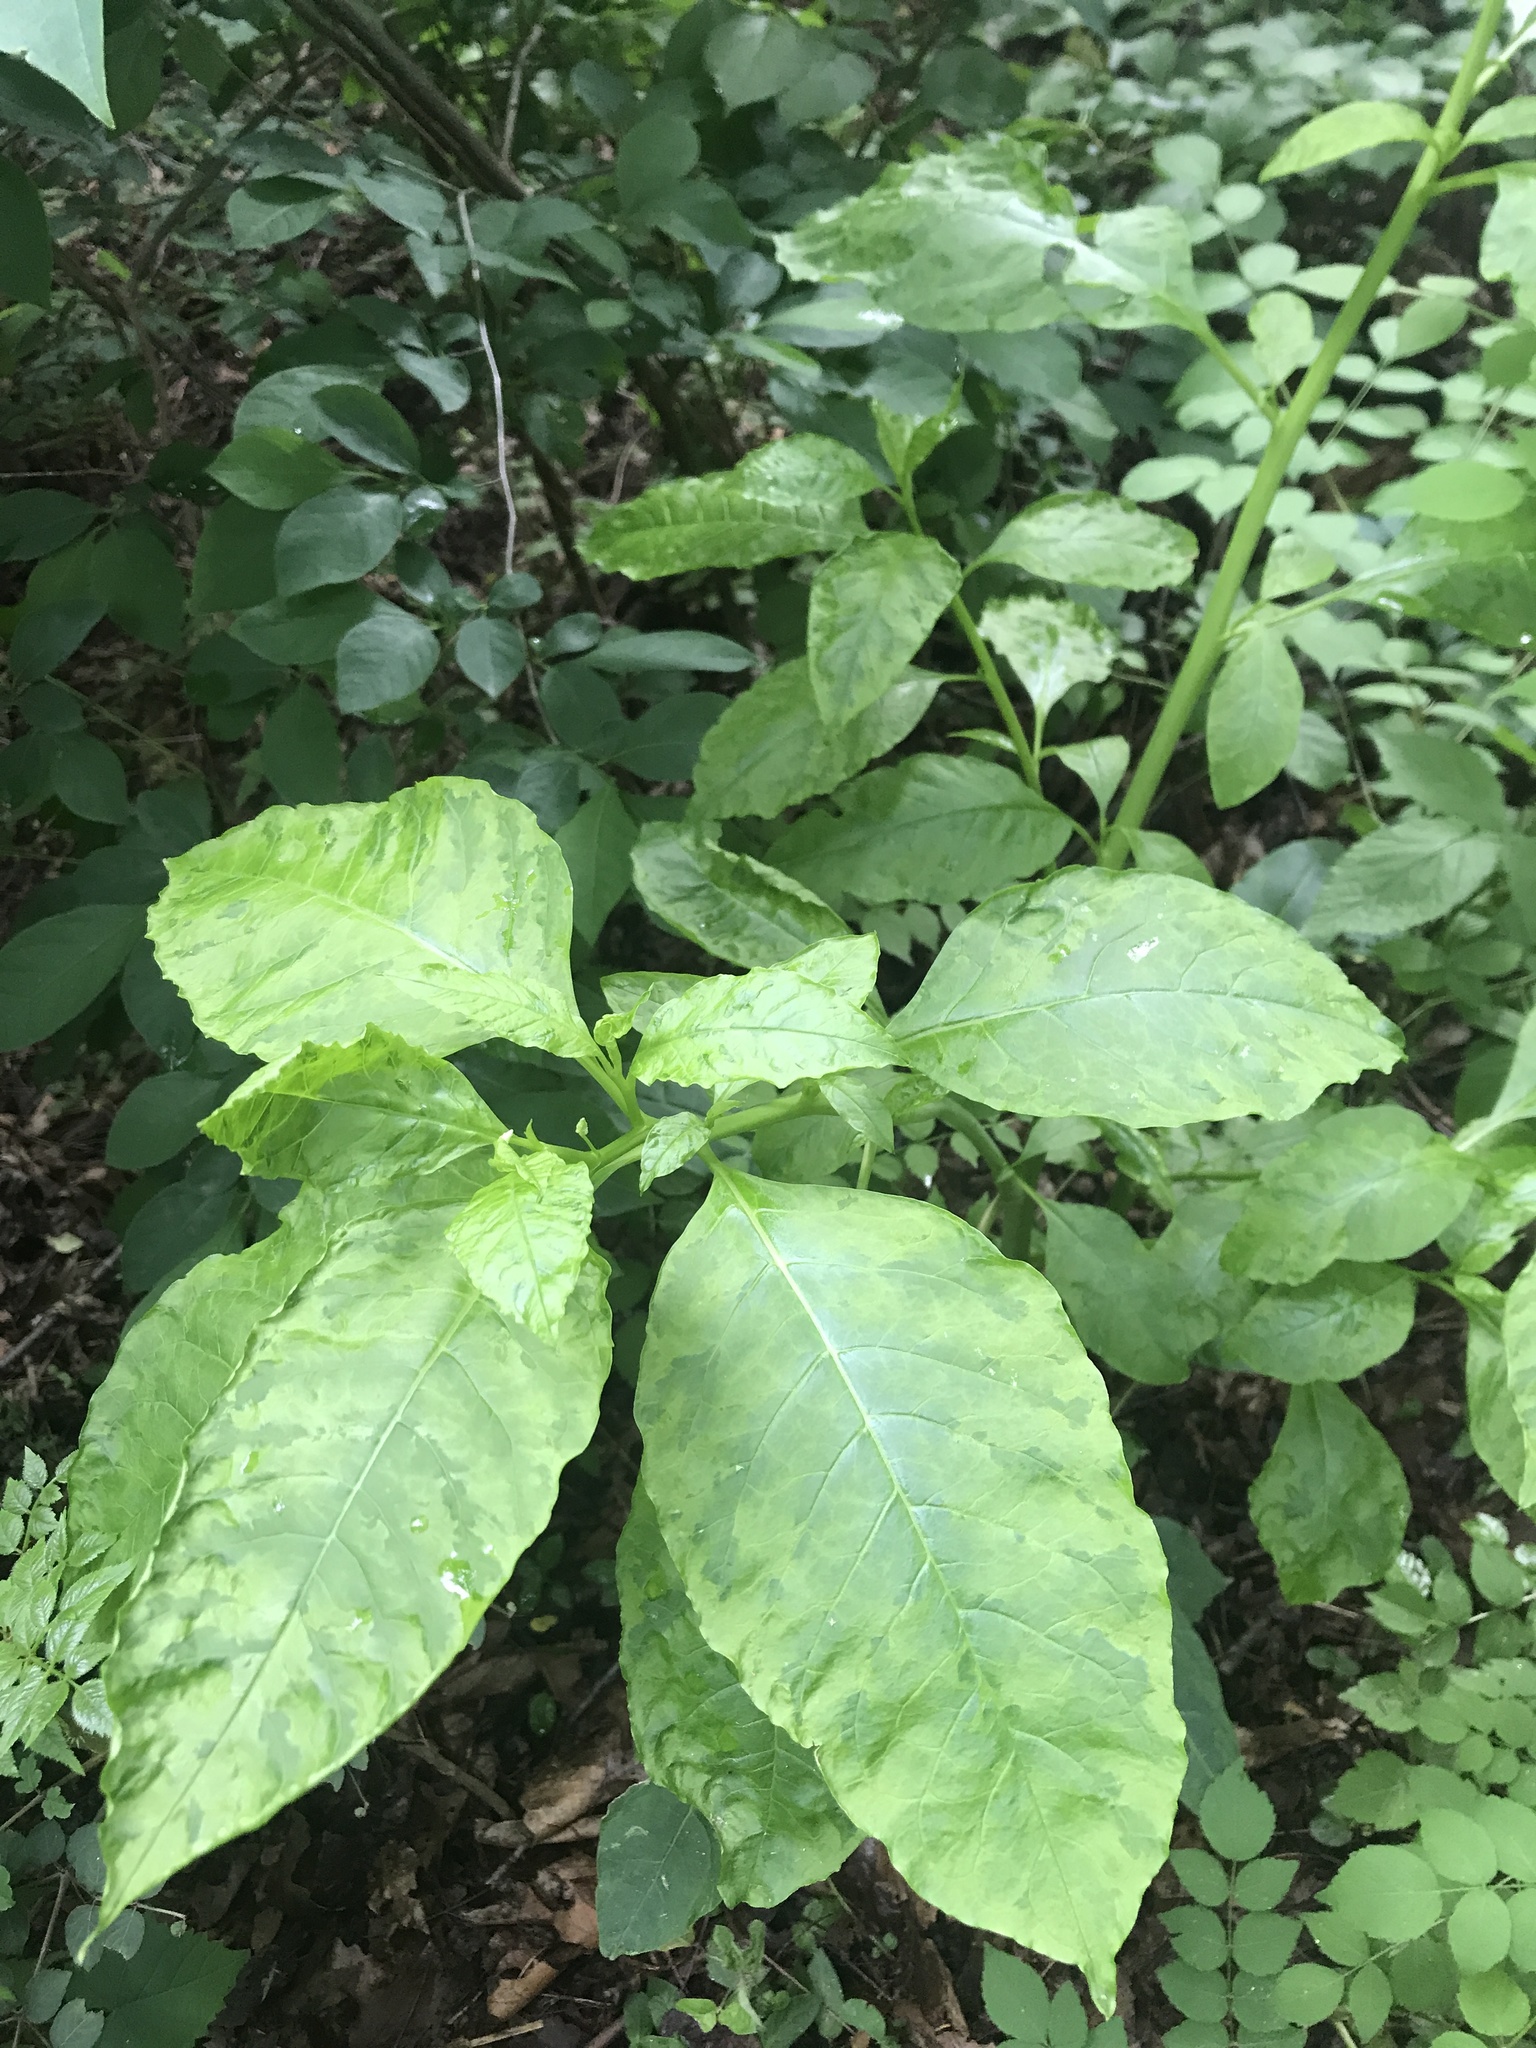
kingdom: Plantae
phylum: Tracheophyta
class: Magnoliopsida
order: Caryophyllales
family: Phytolaccaceae
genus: Phytolacca
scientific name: Phytolacca americana
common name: American pokeweed
